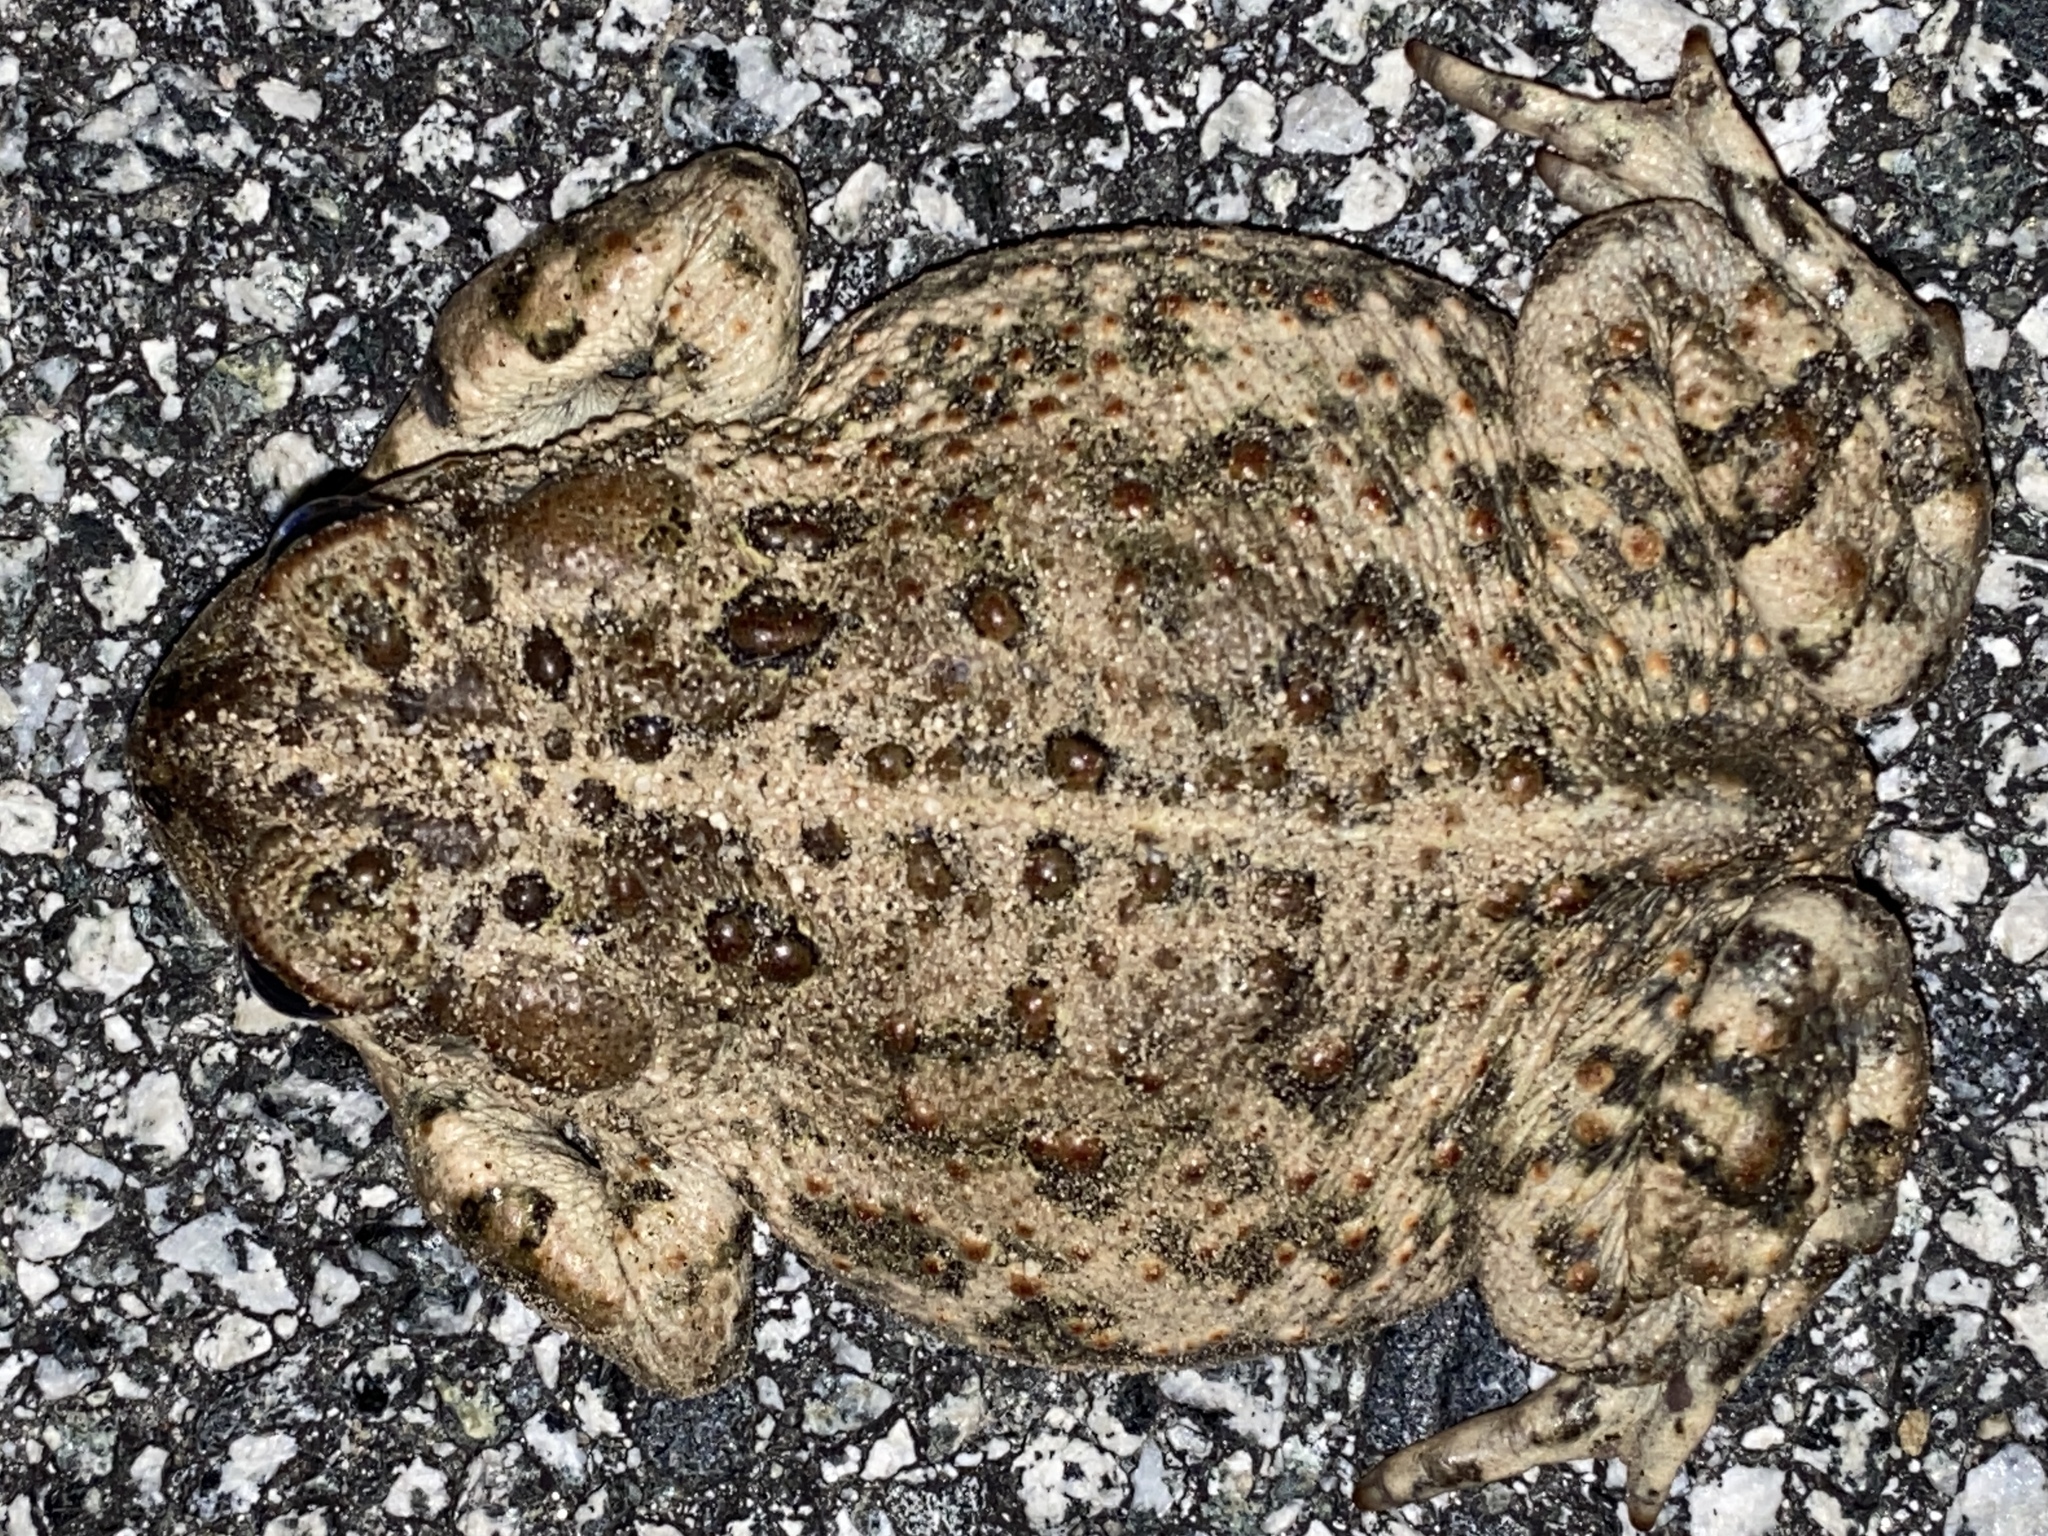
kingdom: Animalia
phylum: Chordata
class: Amphibia
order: Anura
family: Bufonidae
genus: Anaxyrus
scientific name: Anaxyrus boreas
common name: Western toad
